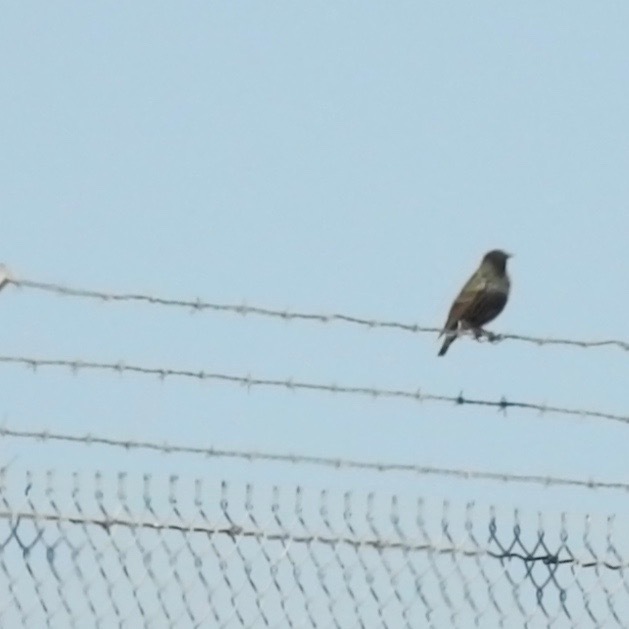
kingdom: Animalia
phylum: Chordata
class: Aves
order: Passeriformes
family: Sturnidae
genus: Sturnus
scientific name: Sturnus vulgaris
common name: Common starling
